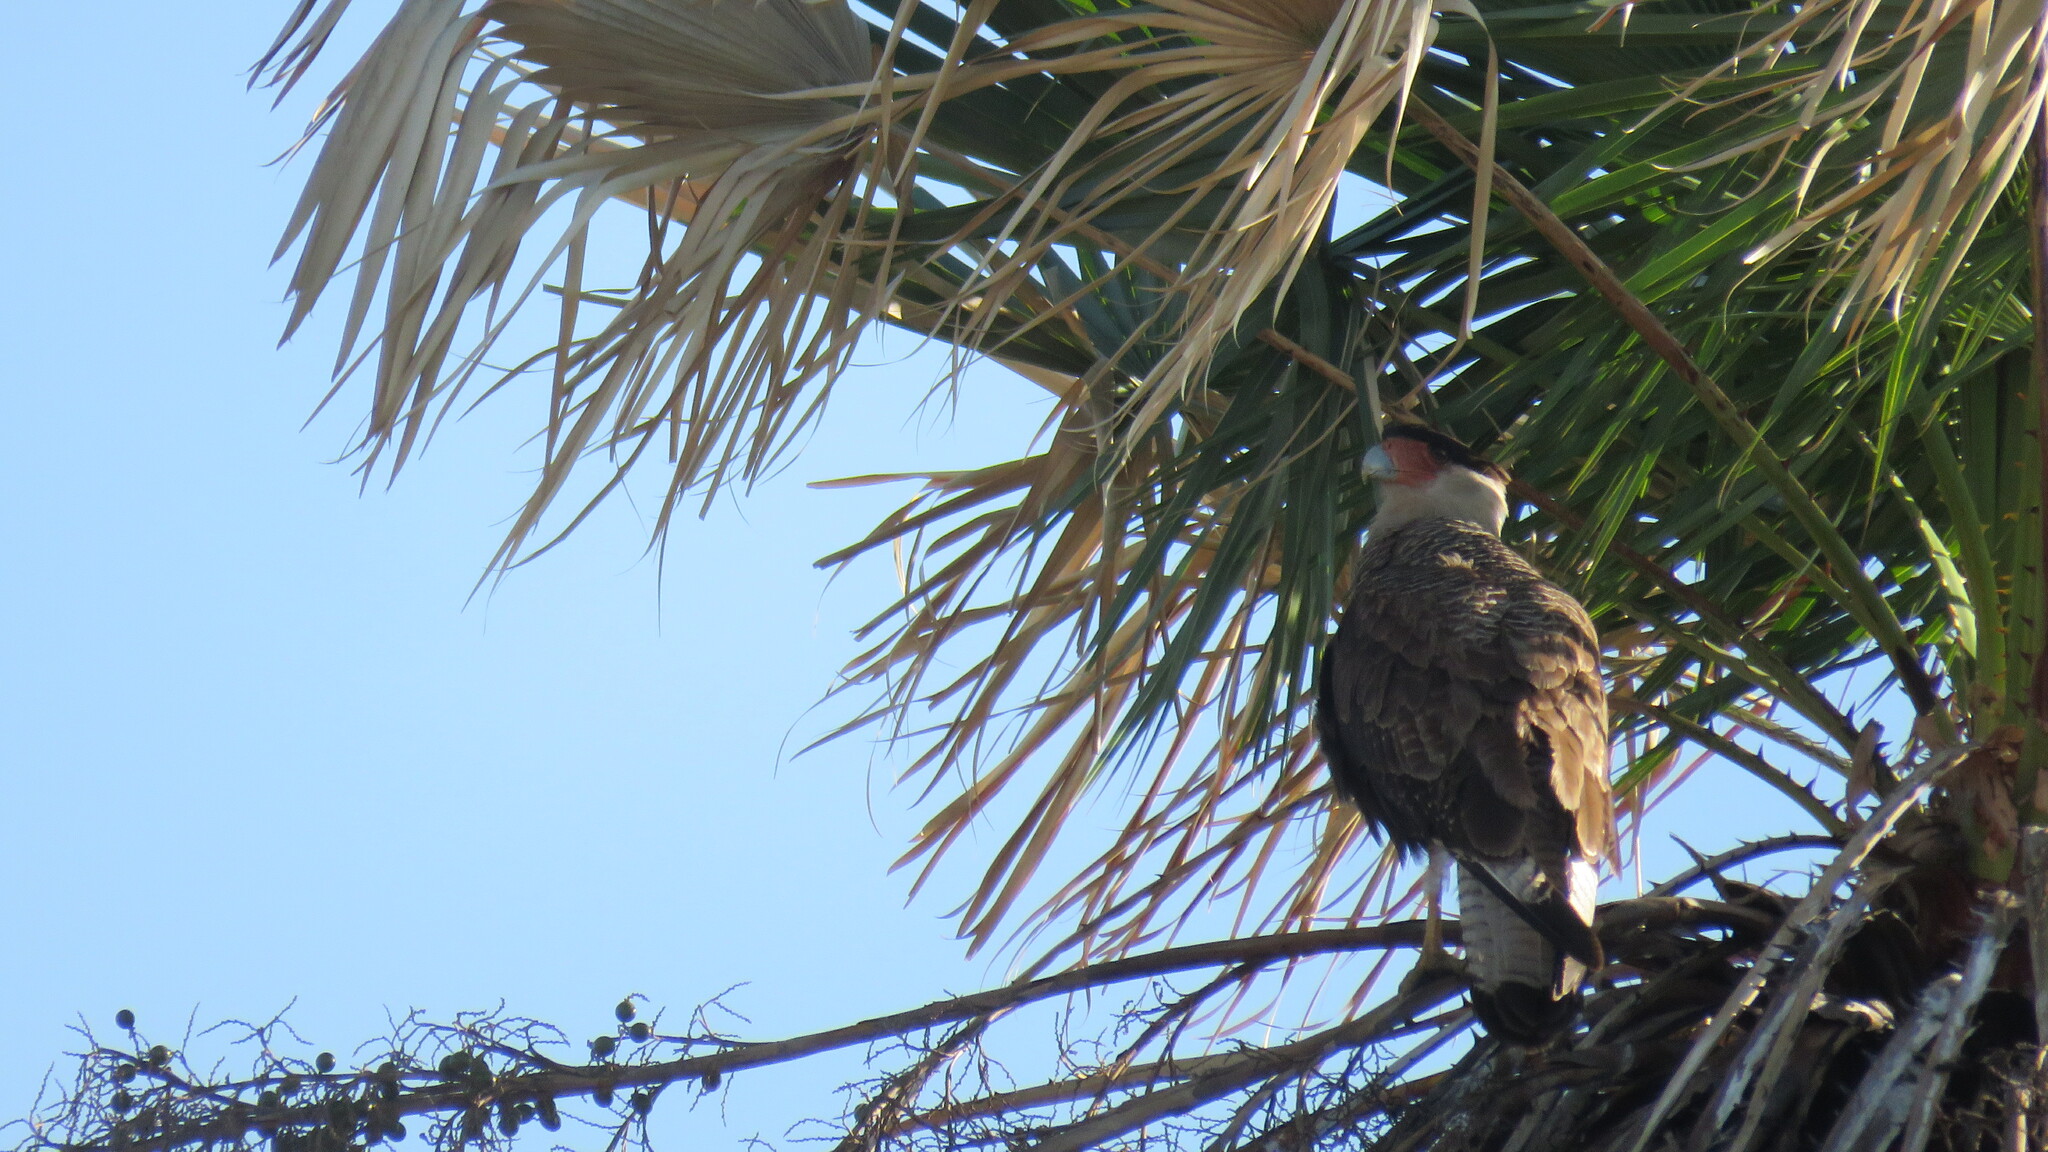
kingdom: Animalia
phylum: Chordata
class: Aves
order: Falconiformes
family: Falconidae
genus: Caracara
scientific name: Caracara plancus
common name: Southern caracara
